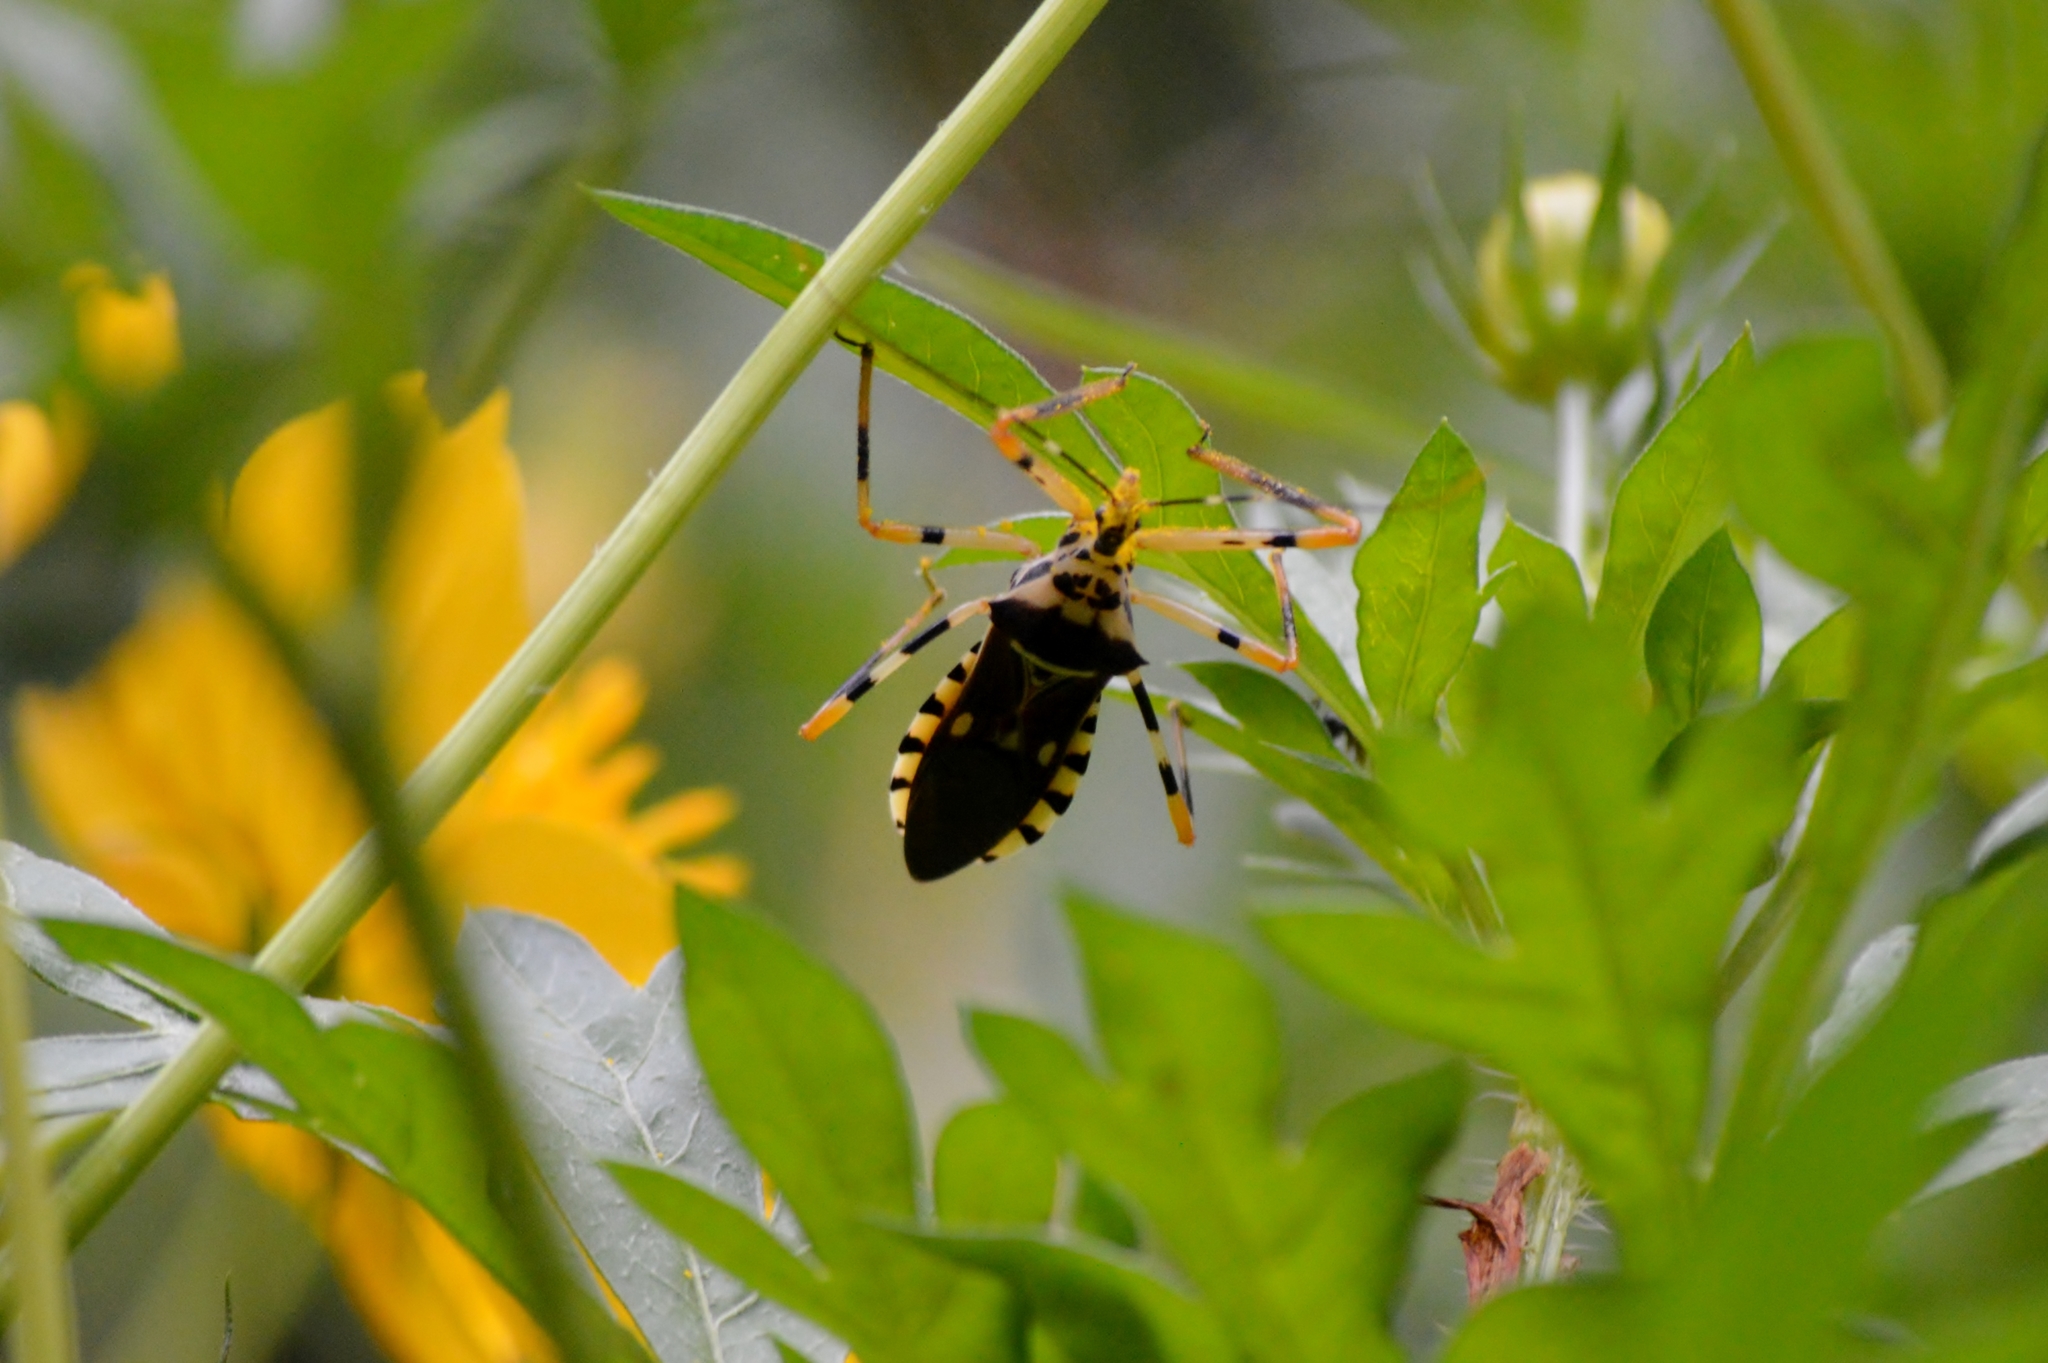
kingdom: Animalia
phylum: Arthropoda
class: Insecta
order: Hemiptera
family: Reduviidae
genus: Zelus
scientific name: Zelus armillatus
